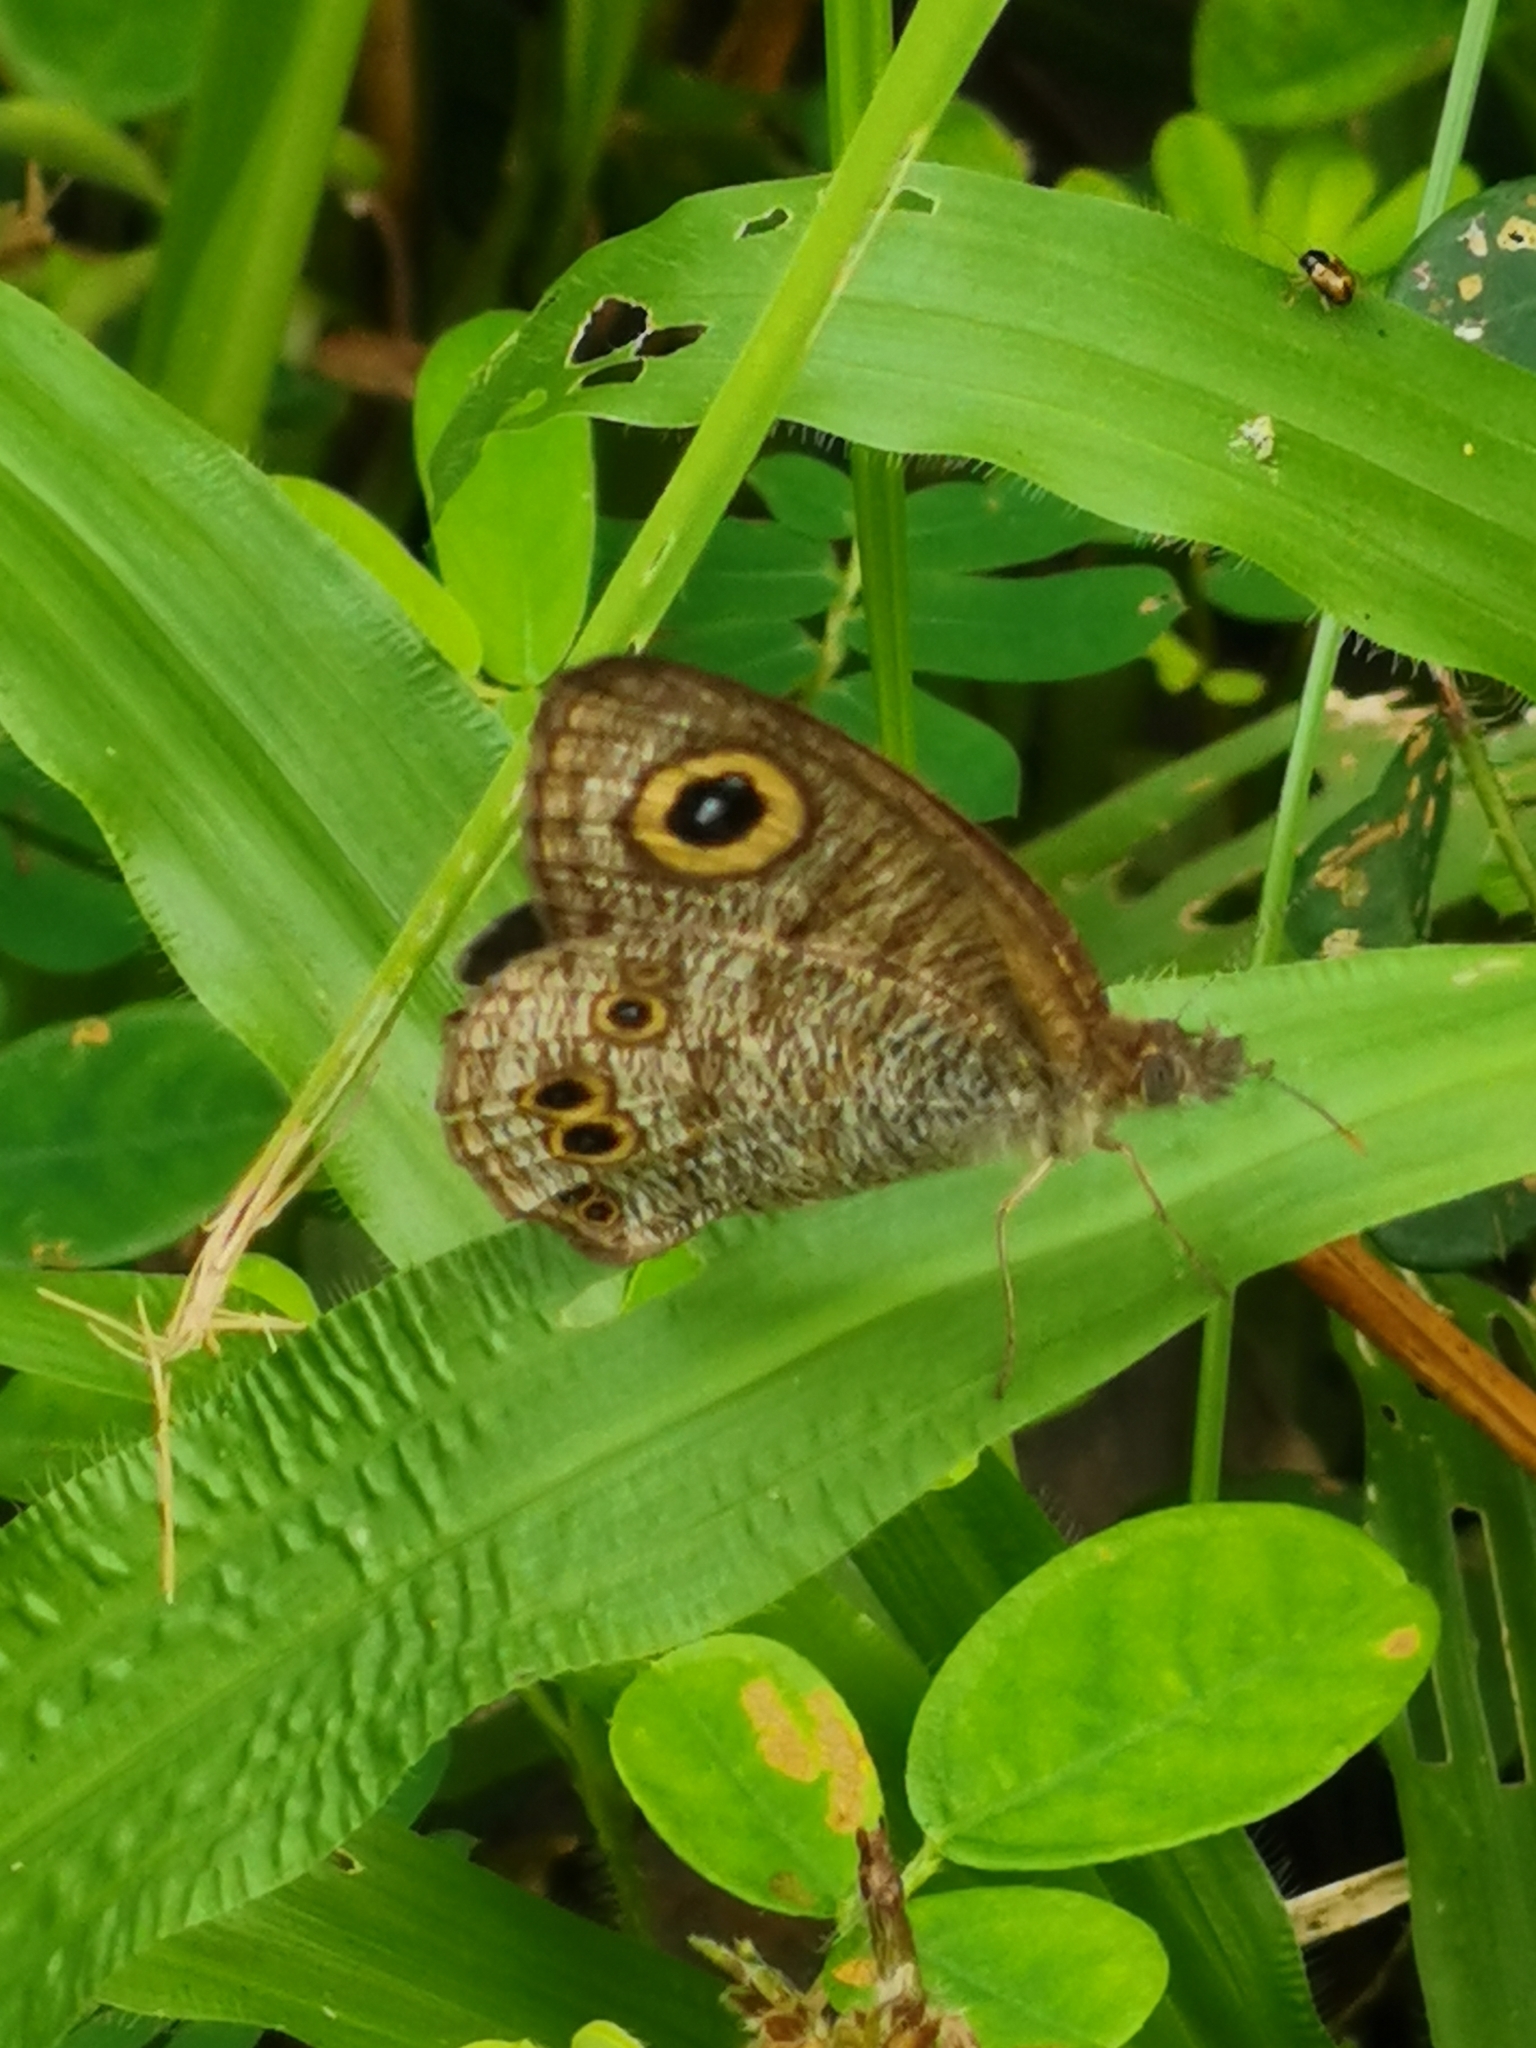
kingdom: Animalia
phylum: Arthropoda
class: Insecta
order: Lepidoptera
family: Nymphalidae
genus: Ypthima
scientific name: Ypthima baldus
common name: Common five-ring
